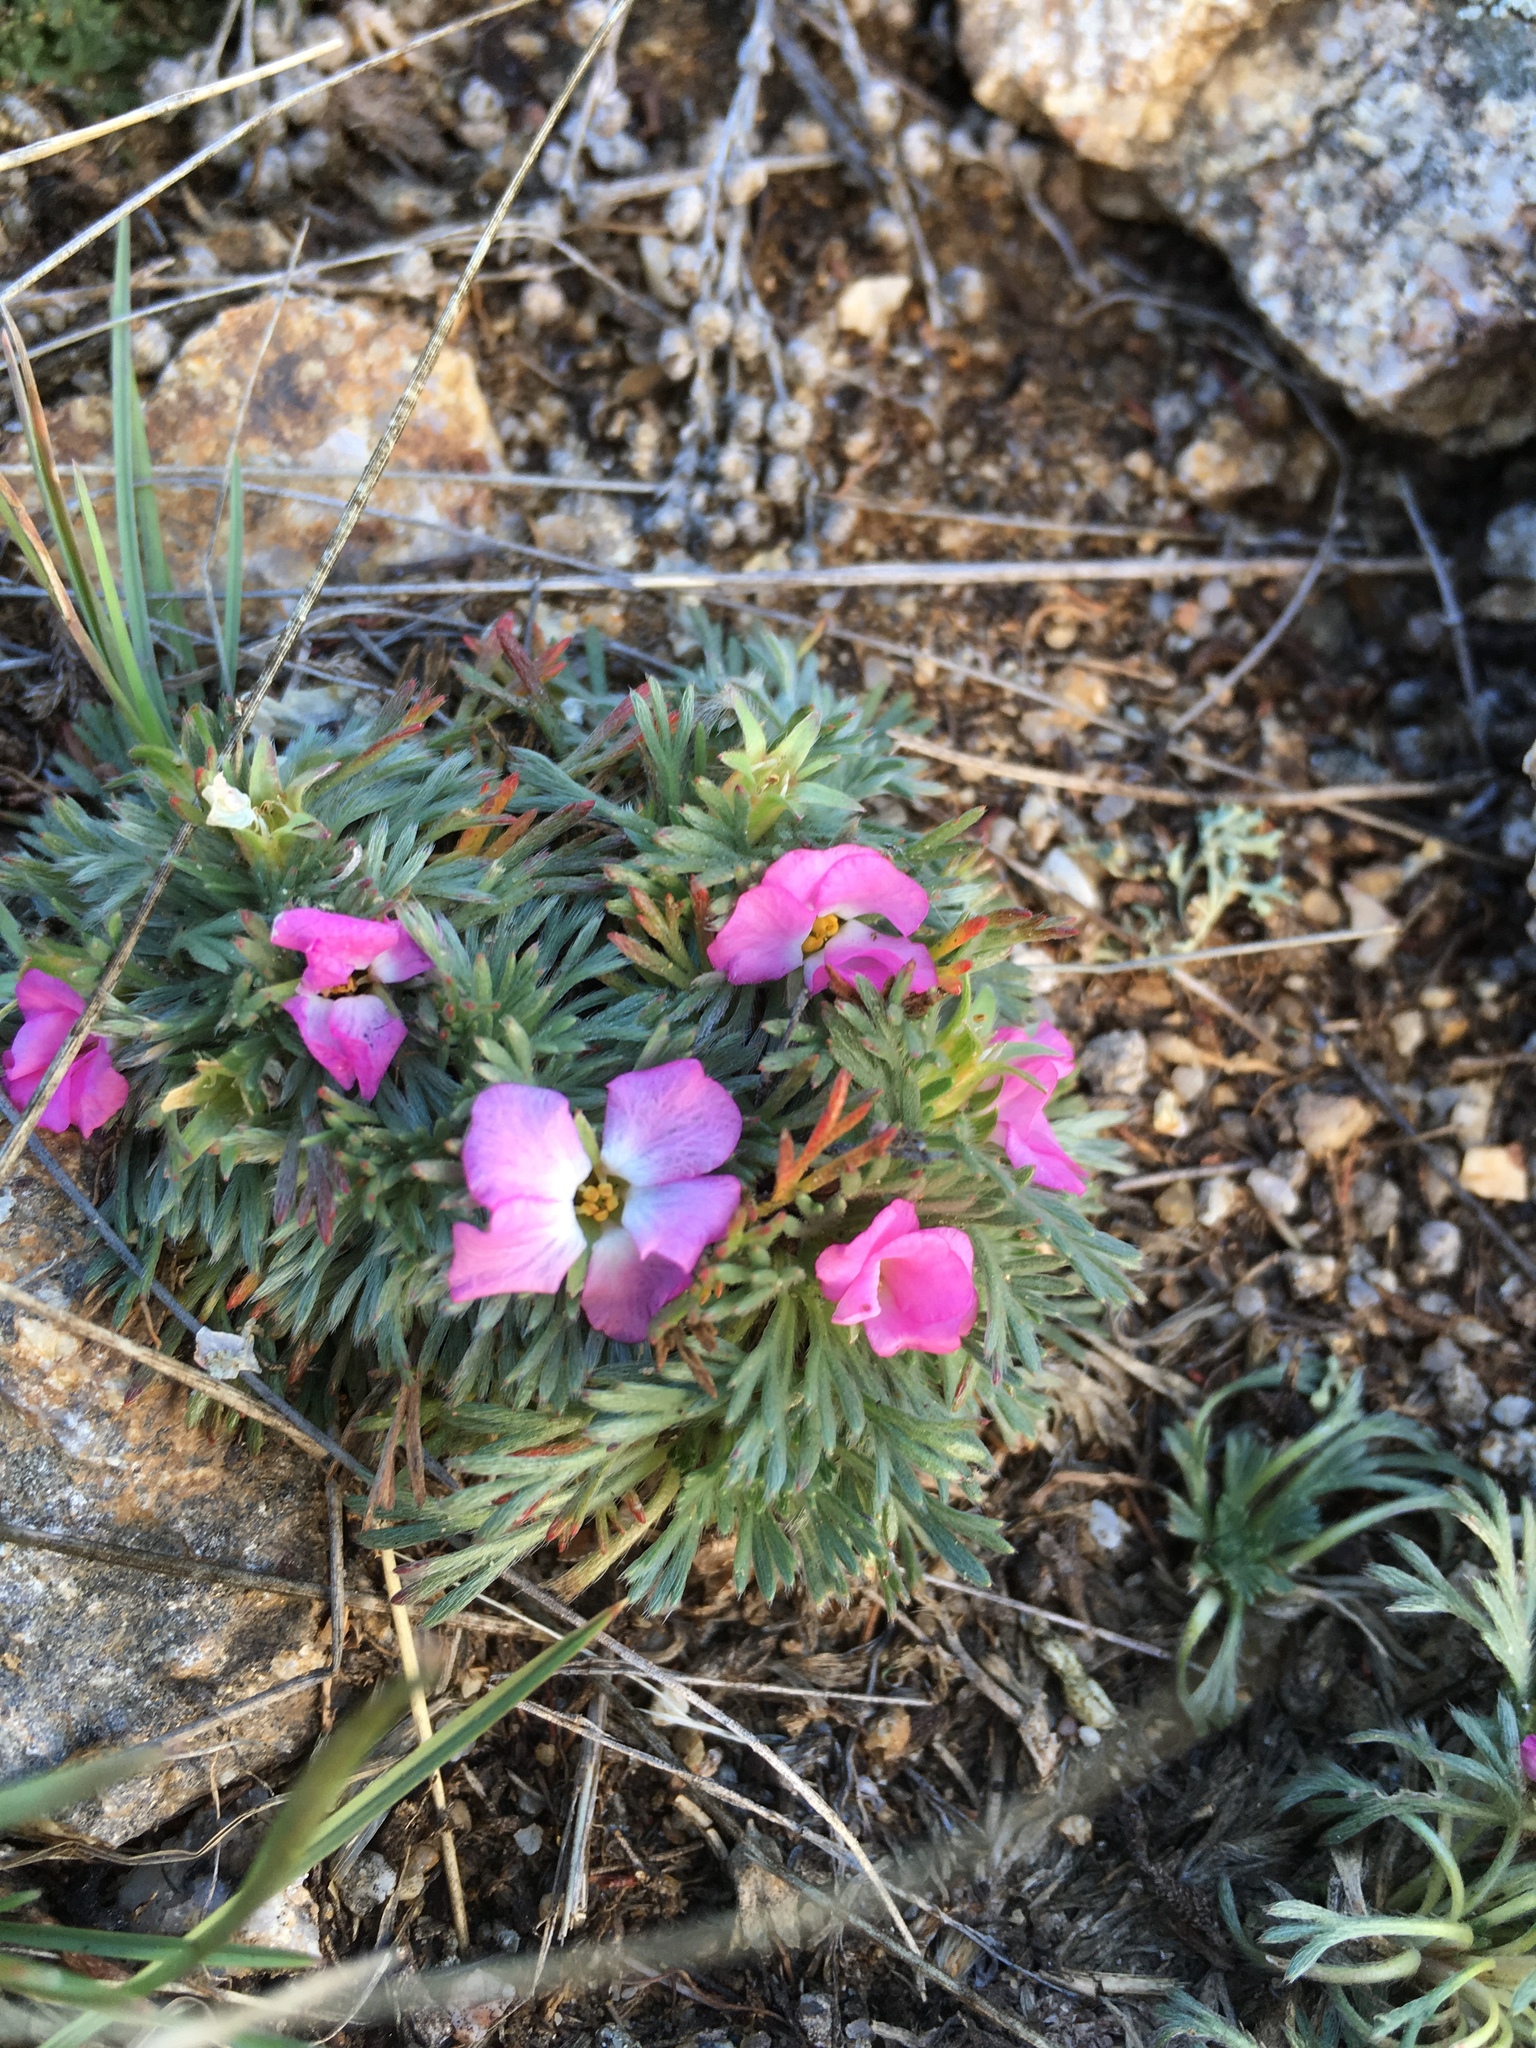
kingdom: Plantae
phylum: Tracheophyta
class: Magnoliopsida
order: Rosales
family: Rosaceae
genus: Chamaerhodos
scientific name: Chamaerhodos altaica
